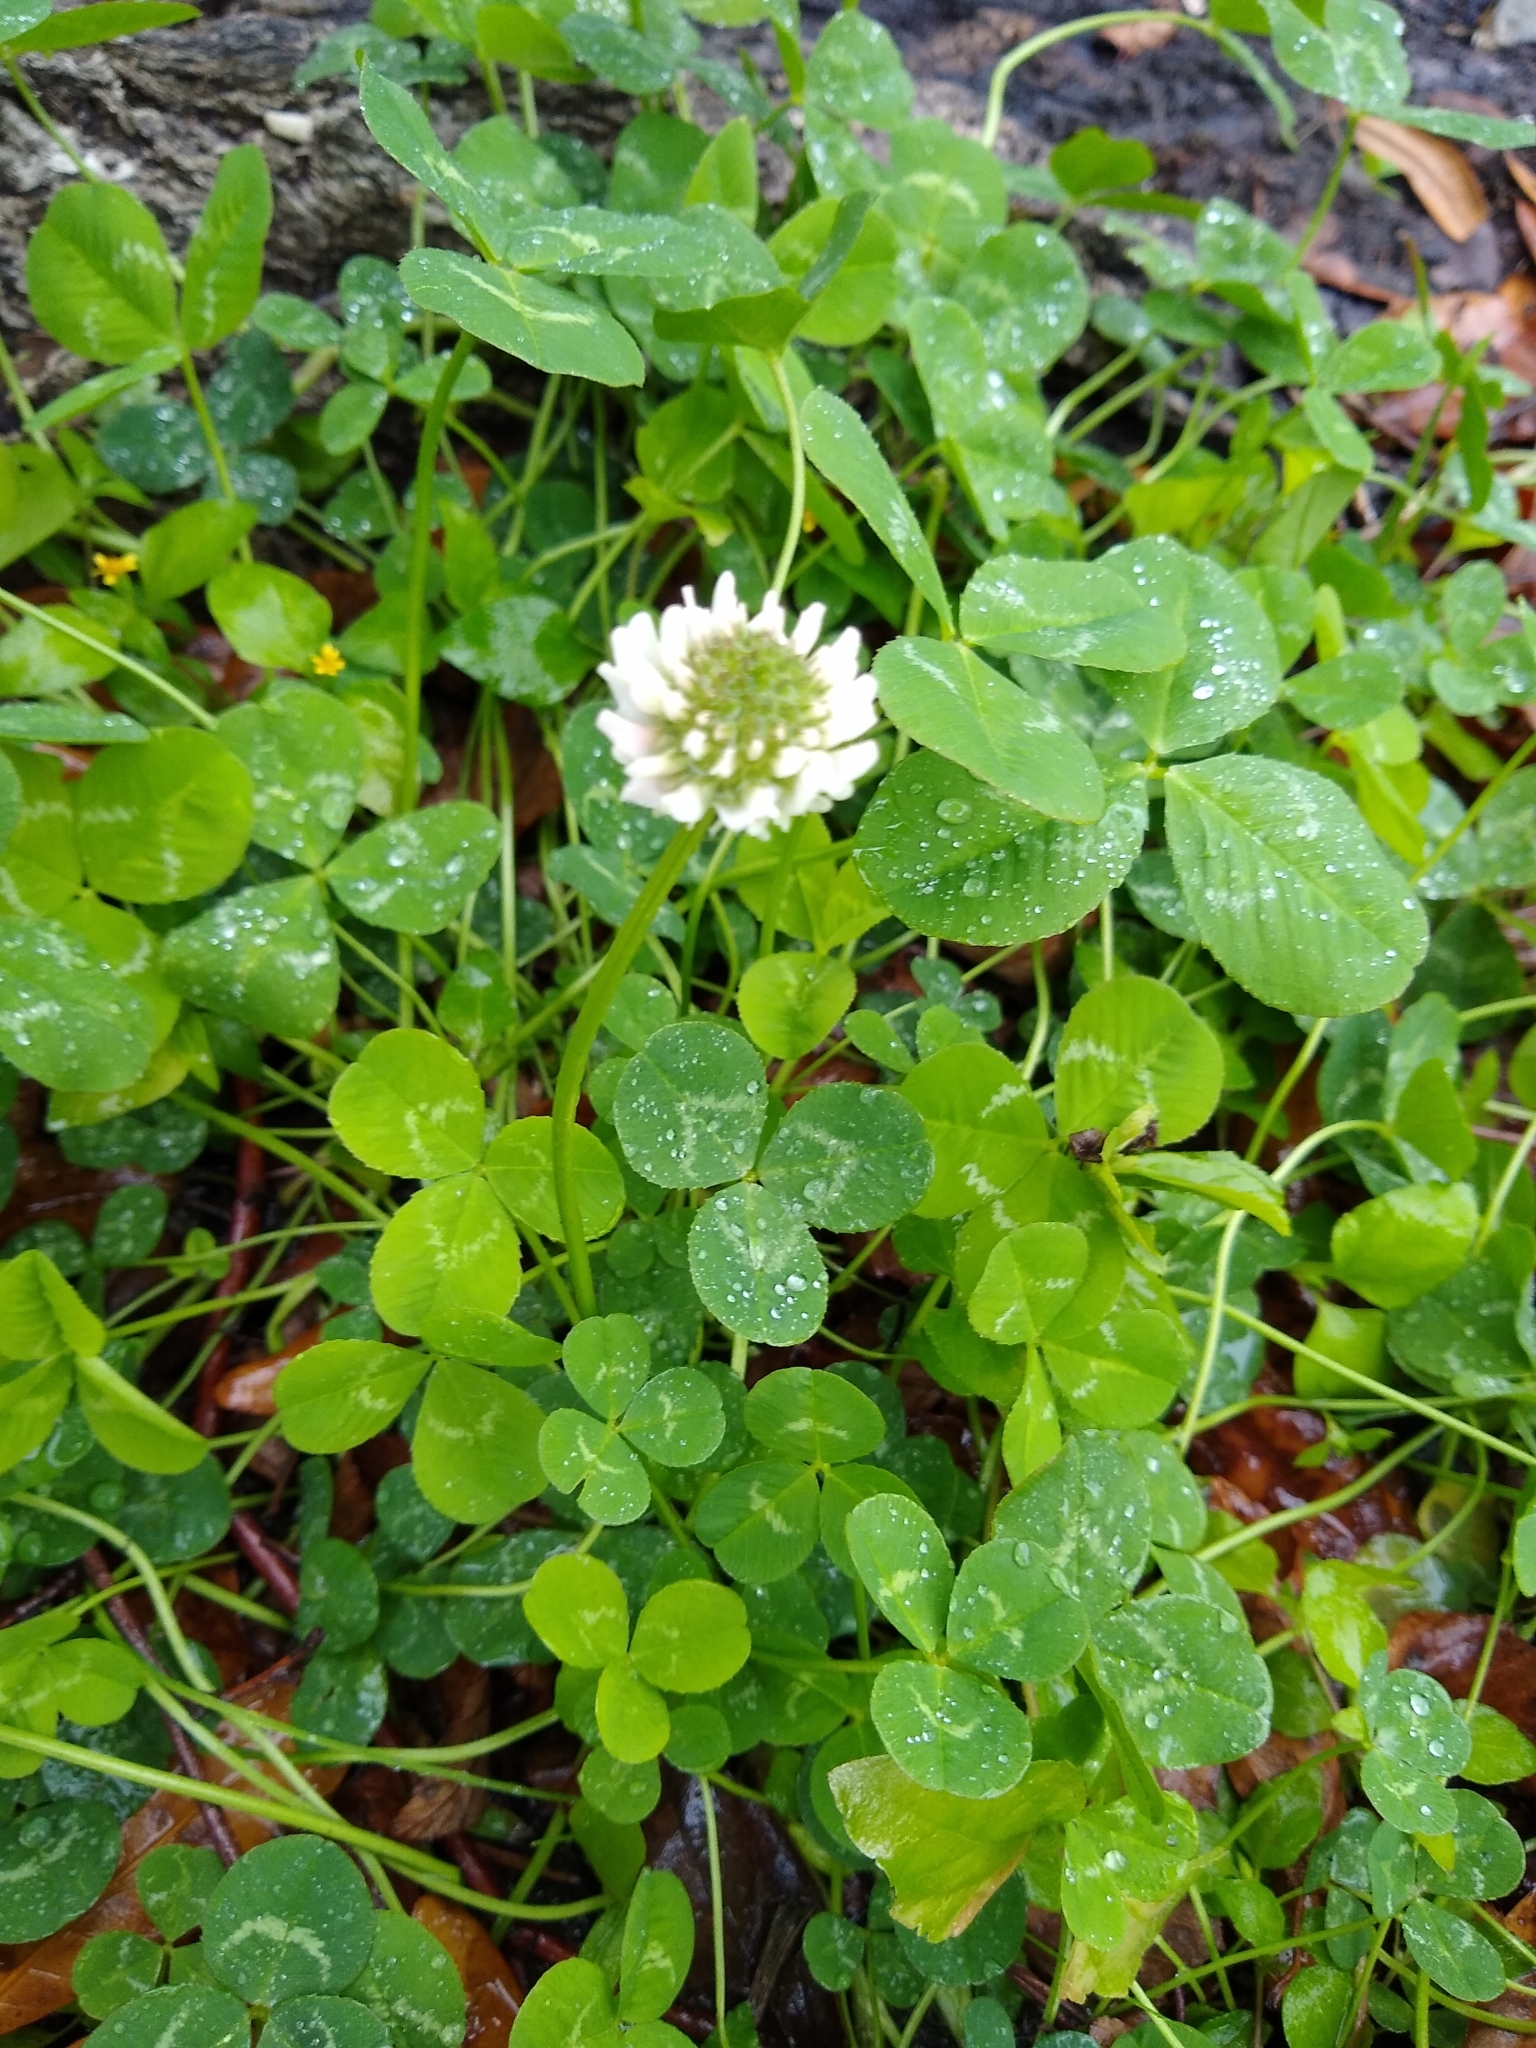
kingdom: Plantae
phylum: Tracheophyta
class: Magnoliopsida
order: Fabales
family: Fabaceae
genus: Trifolium
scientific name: Trifolium repens
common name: White clover
